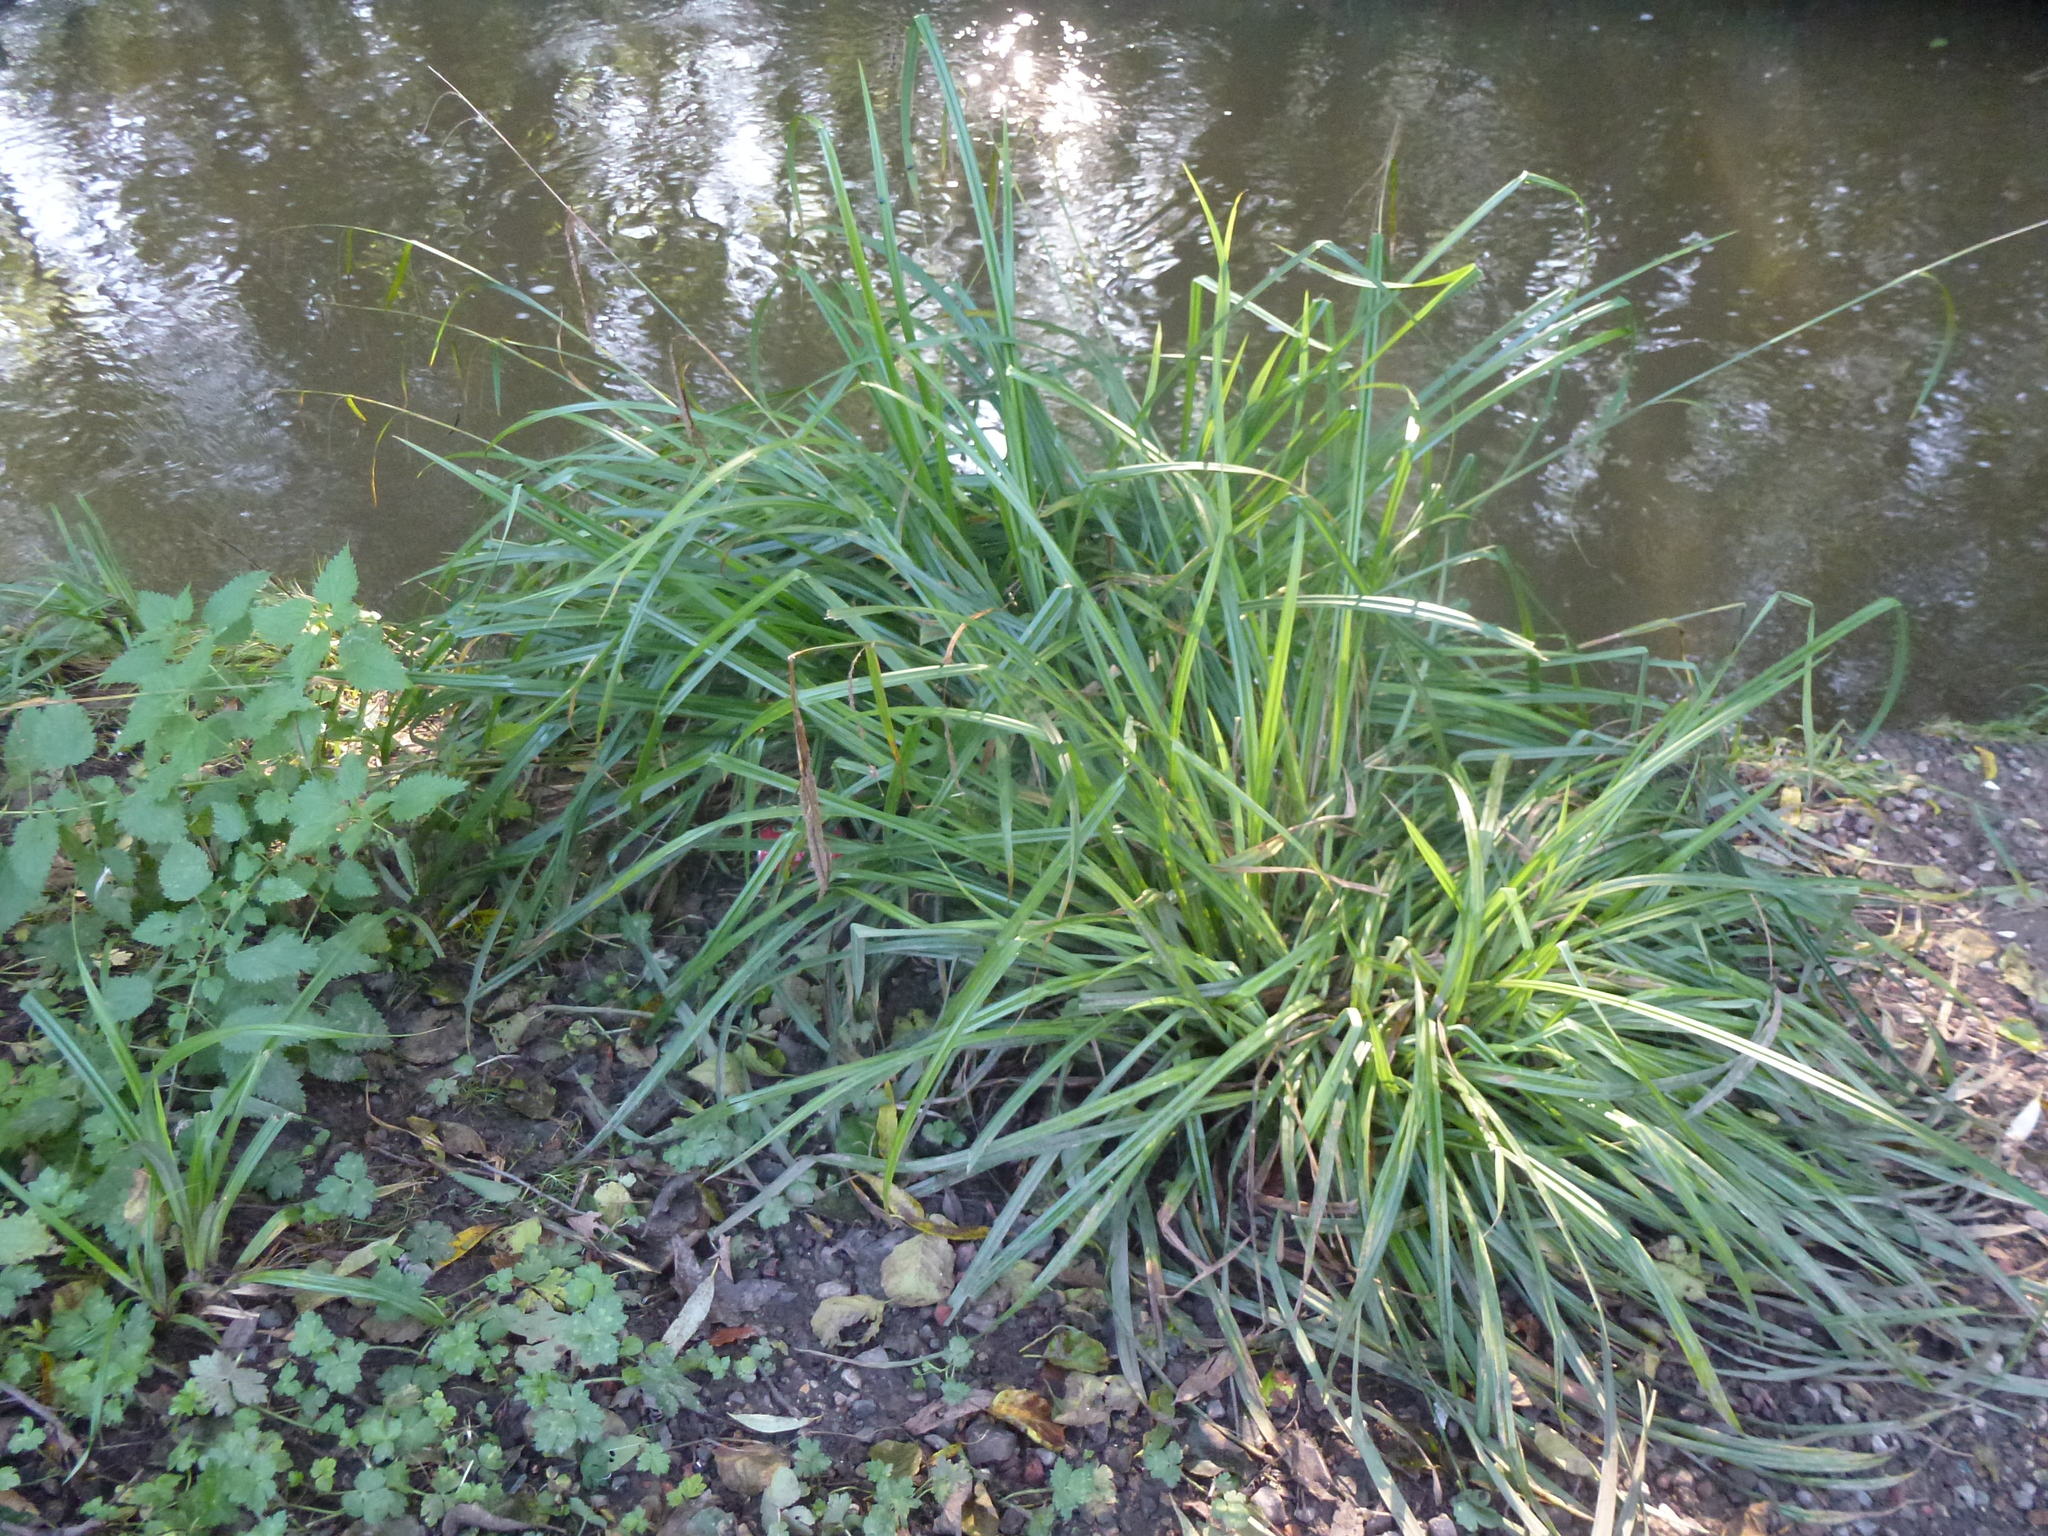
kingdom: Plantae
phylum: Tracheophyta
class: Liliopsida
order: Poales
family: Cyperaceae
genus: Carex
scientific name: Carex pendula
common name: Pendulous sedge
